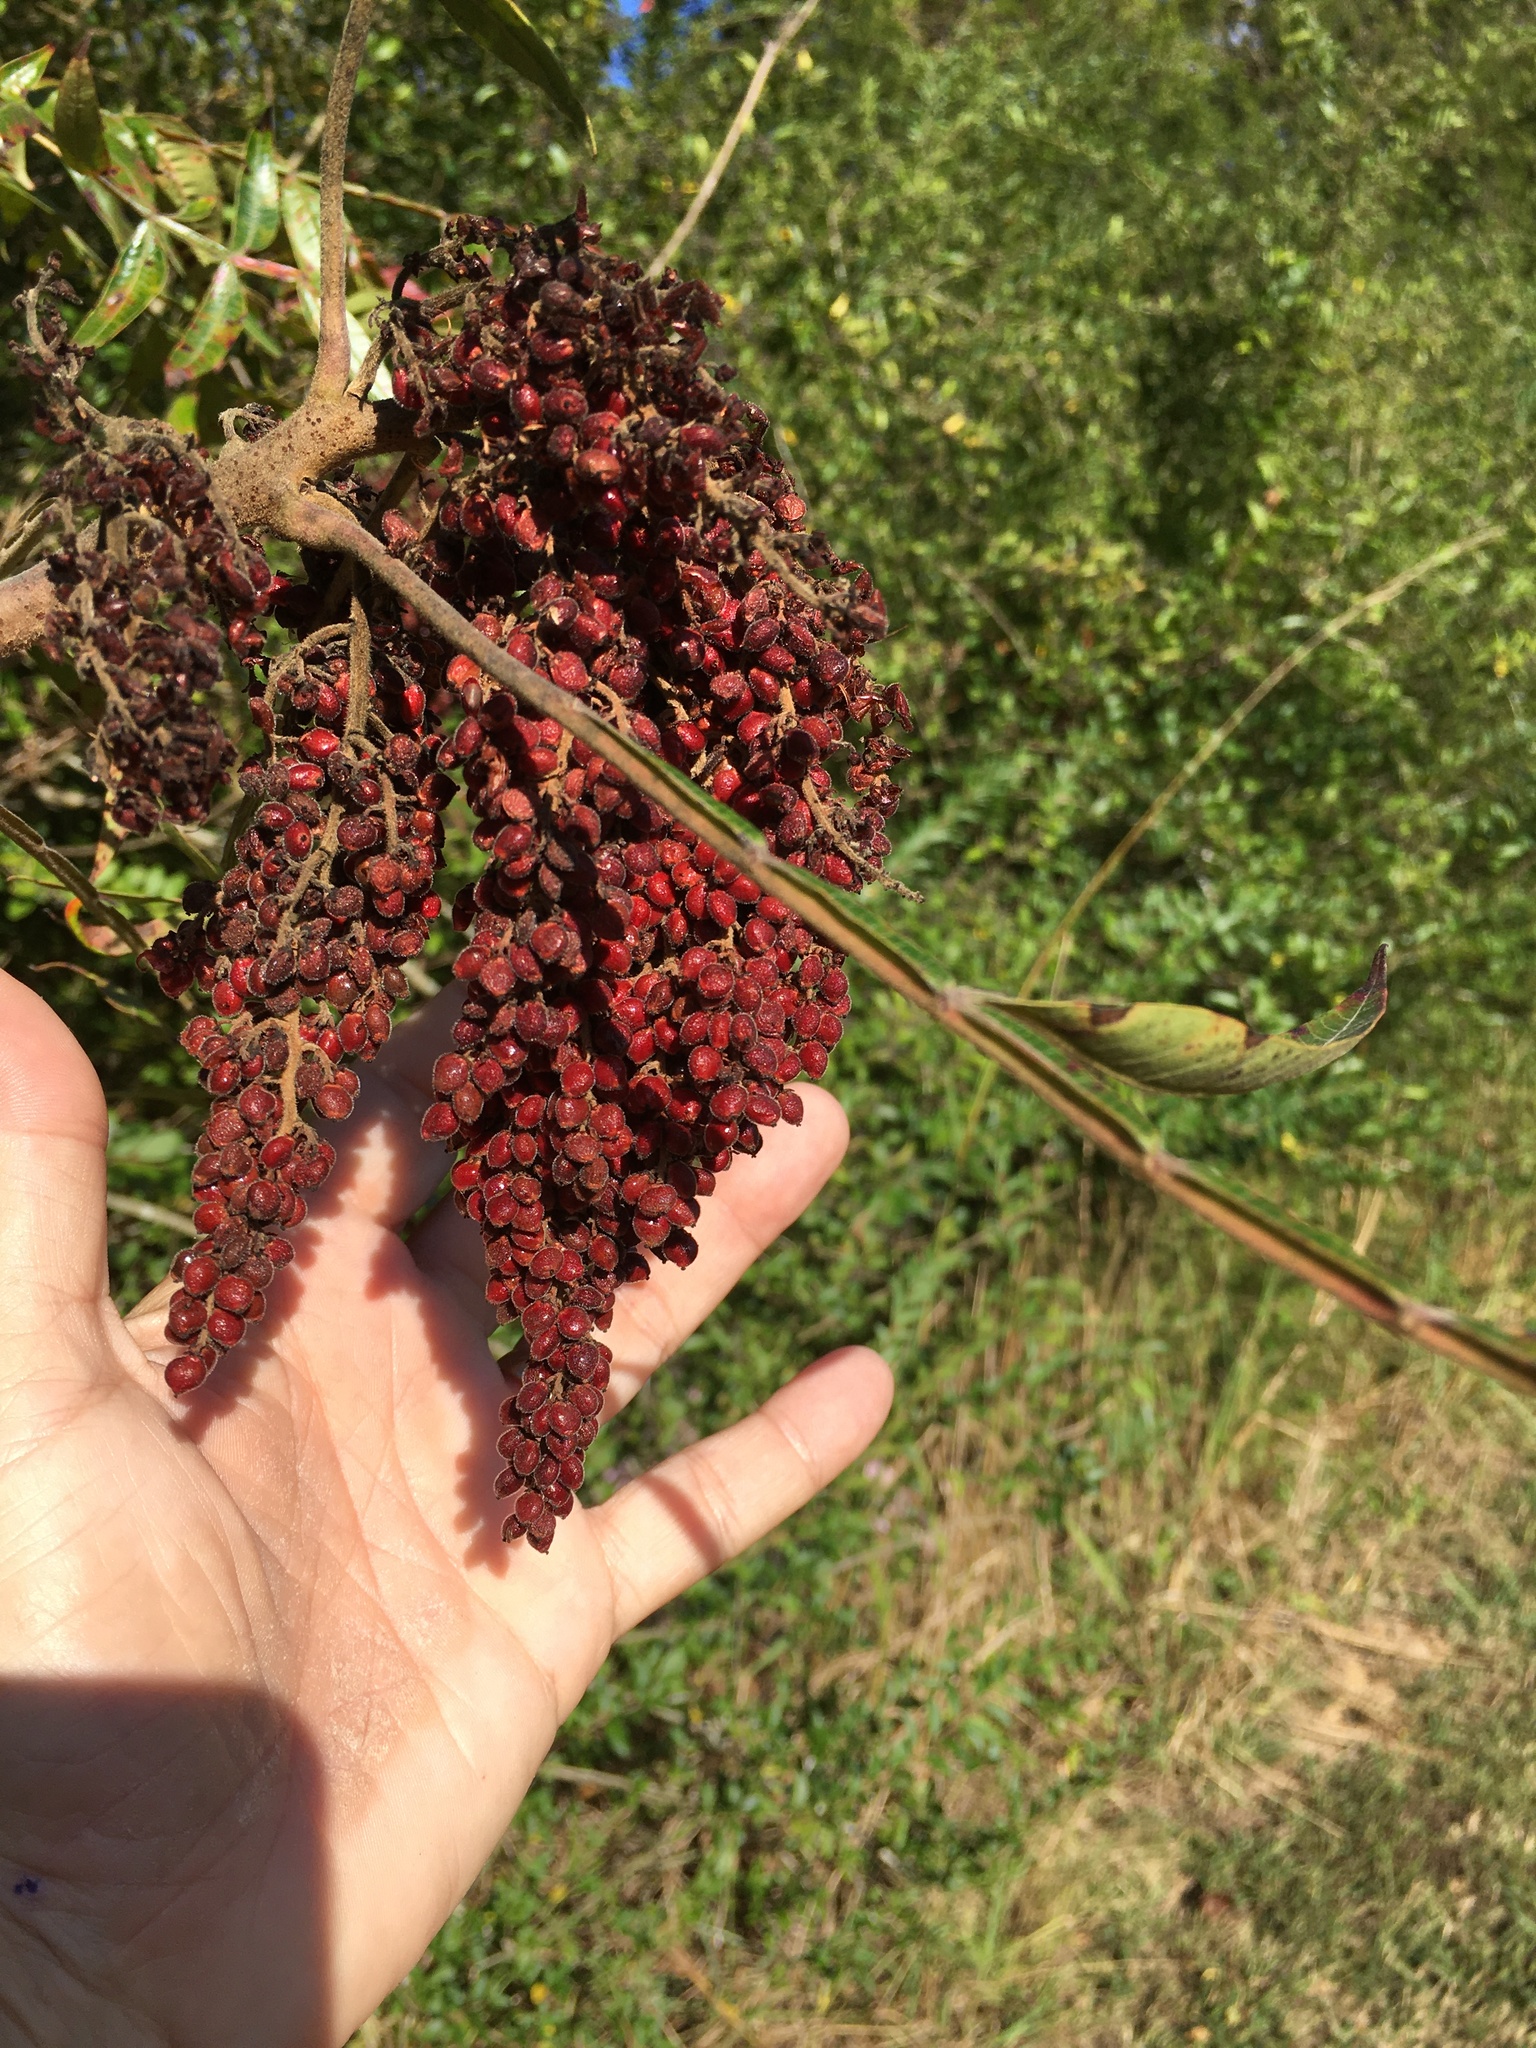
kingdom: Plantae
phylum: Tracheophyta
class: Magnoliopsida
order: Sapindales
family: Anacardiaceae
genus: Rhus
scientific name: Rhus copallina
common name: Shining sumac
